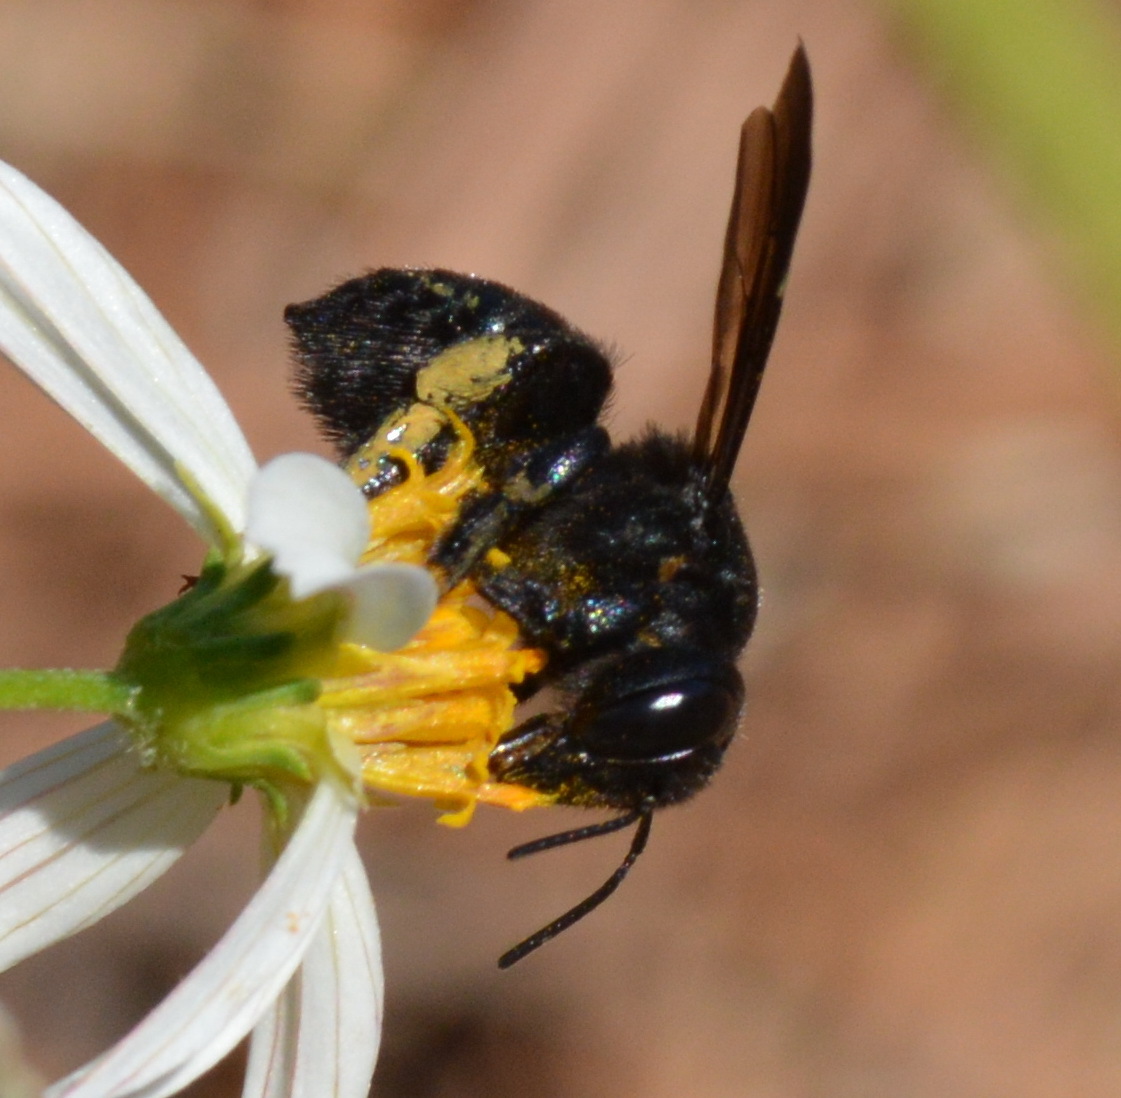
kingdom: Animalia
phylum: Arthropoda
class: Insecta
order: Hymenoptera
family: Megachilidae
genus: Megachile
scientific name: Megachile xylocopoides
